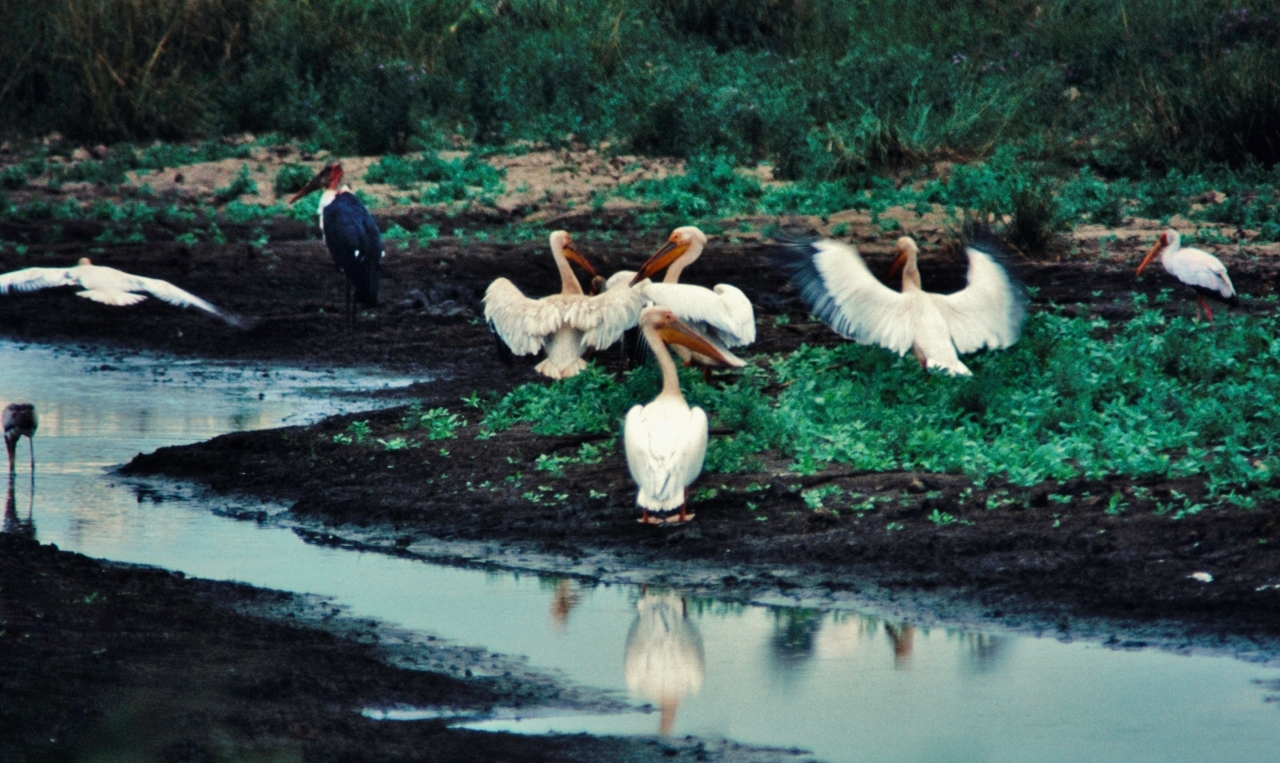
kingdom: Animalia
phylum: Chordata
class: Aves
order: Pelecaniformes
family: Pelecanidae
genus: Pelecanus
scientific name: Pelecanus onocrotalus
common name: Great white pelican
